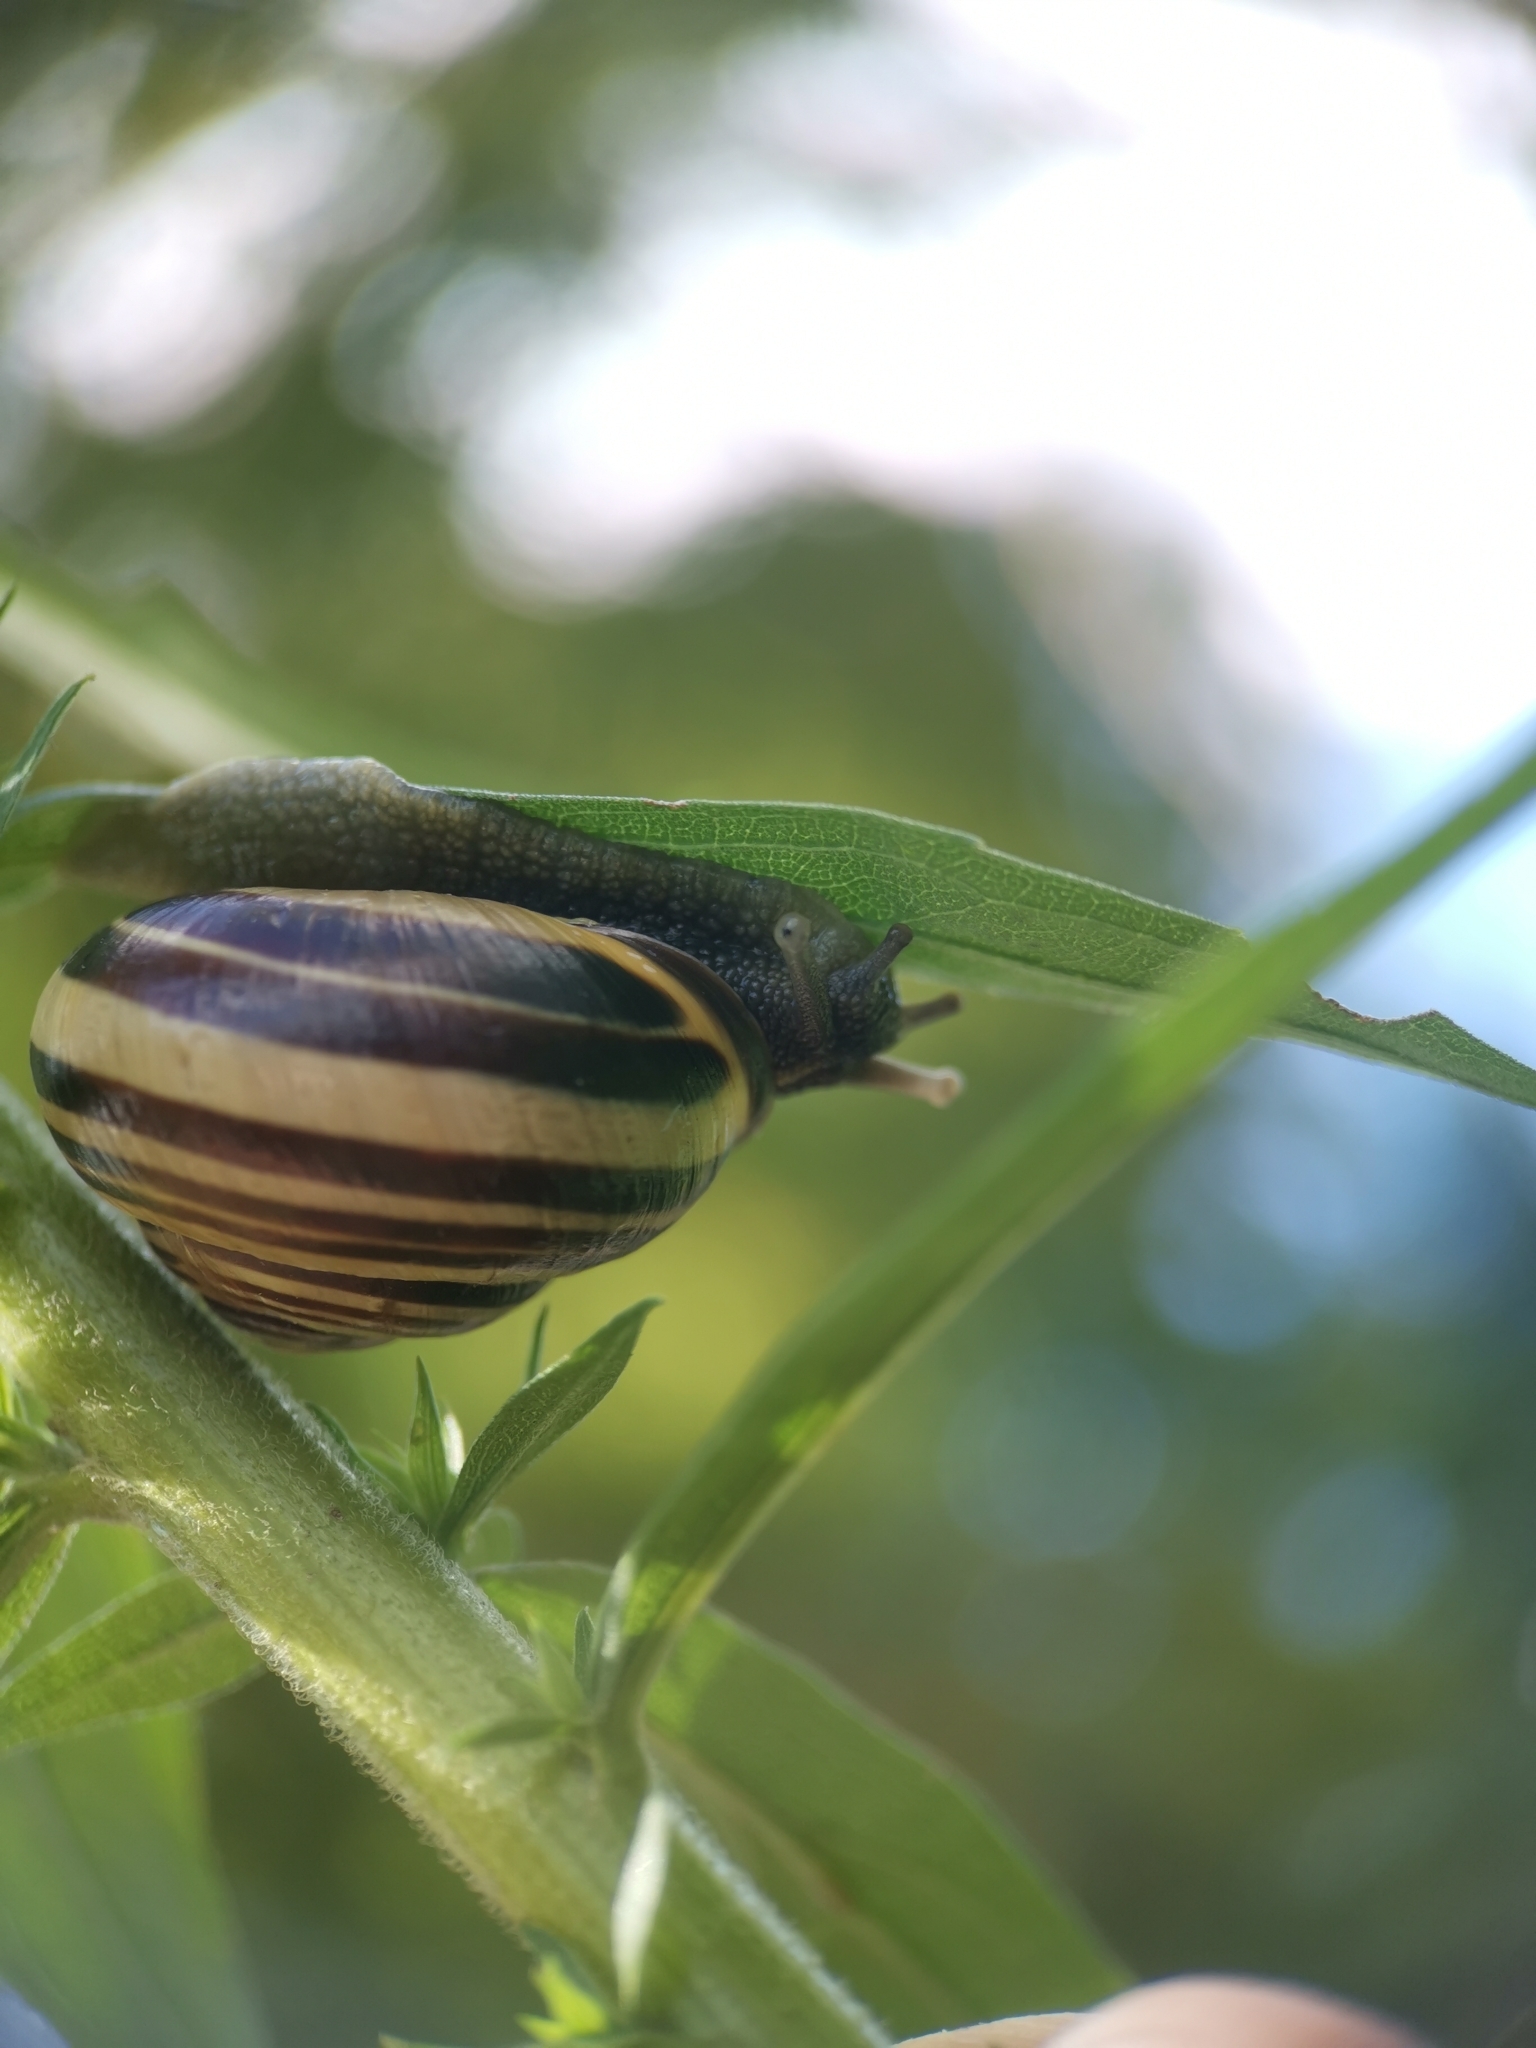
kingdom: Animalia
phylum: Mollusca
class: Gastropoda
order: Stylommatophora
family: Helicidae
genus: Cepaea
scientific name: Cepaea nemoralis
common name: Grovesnail
